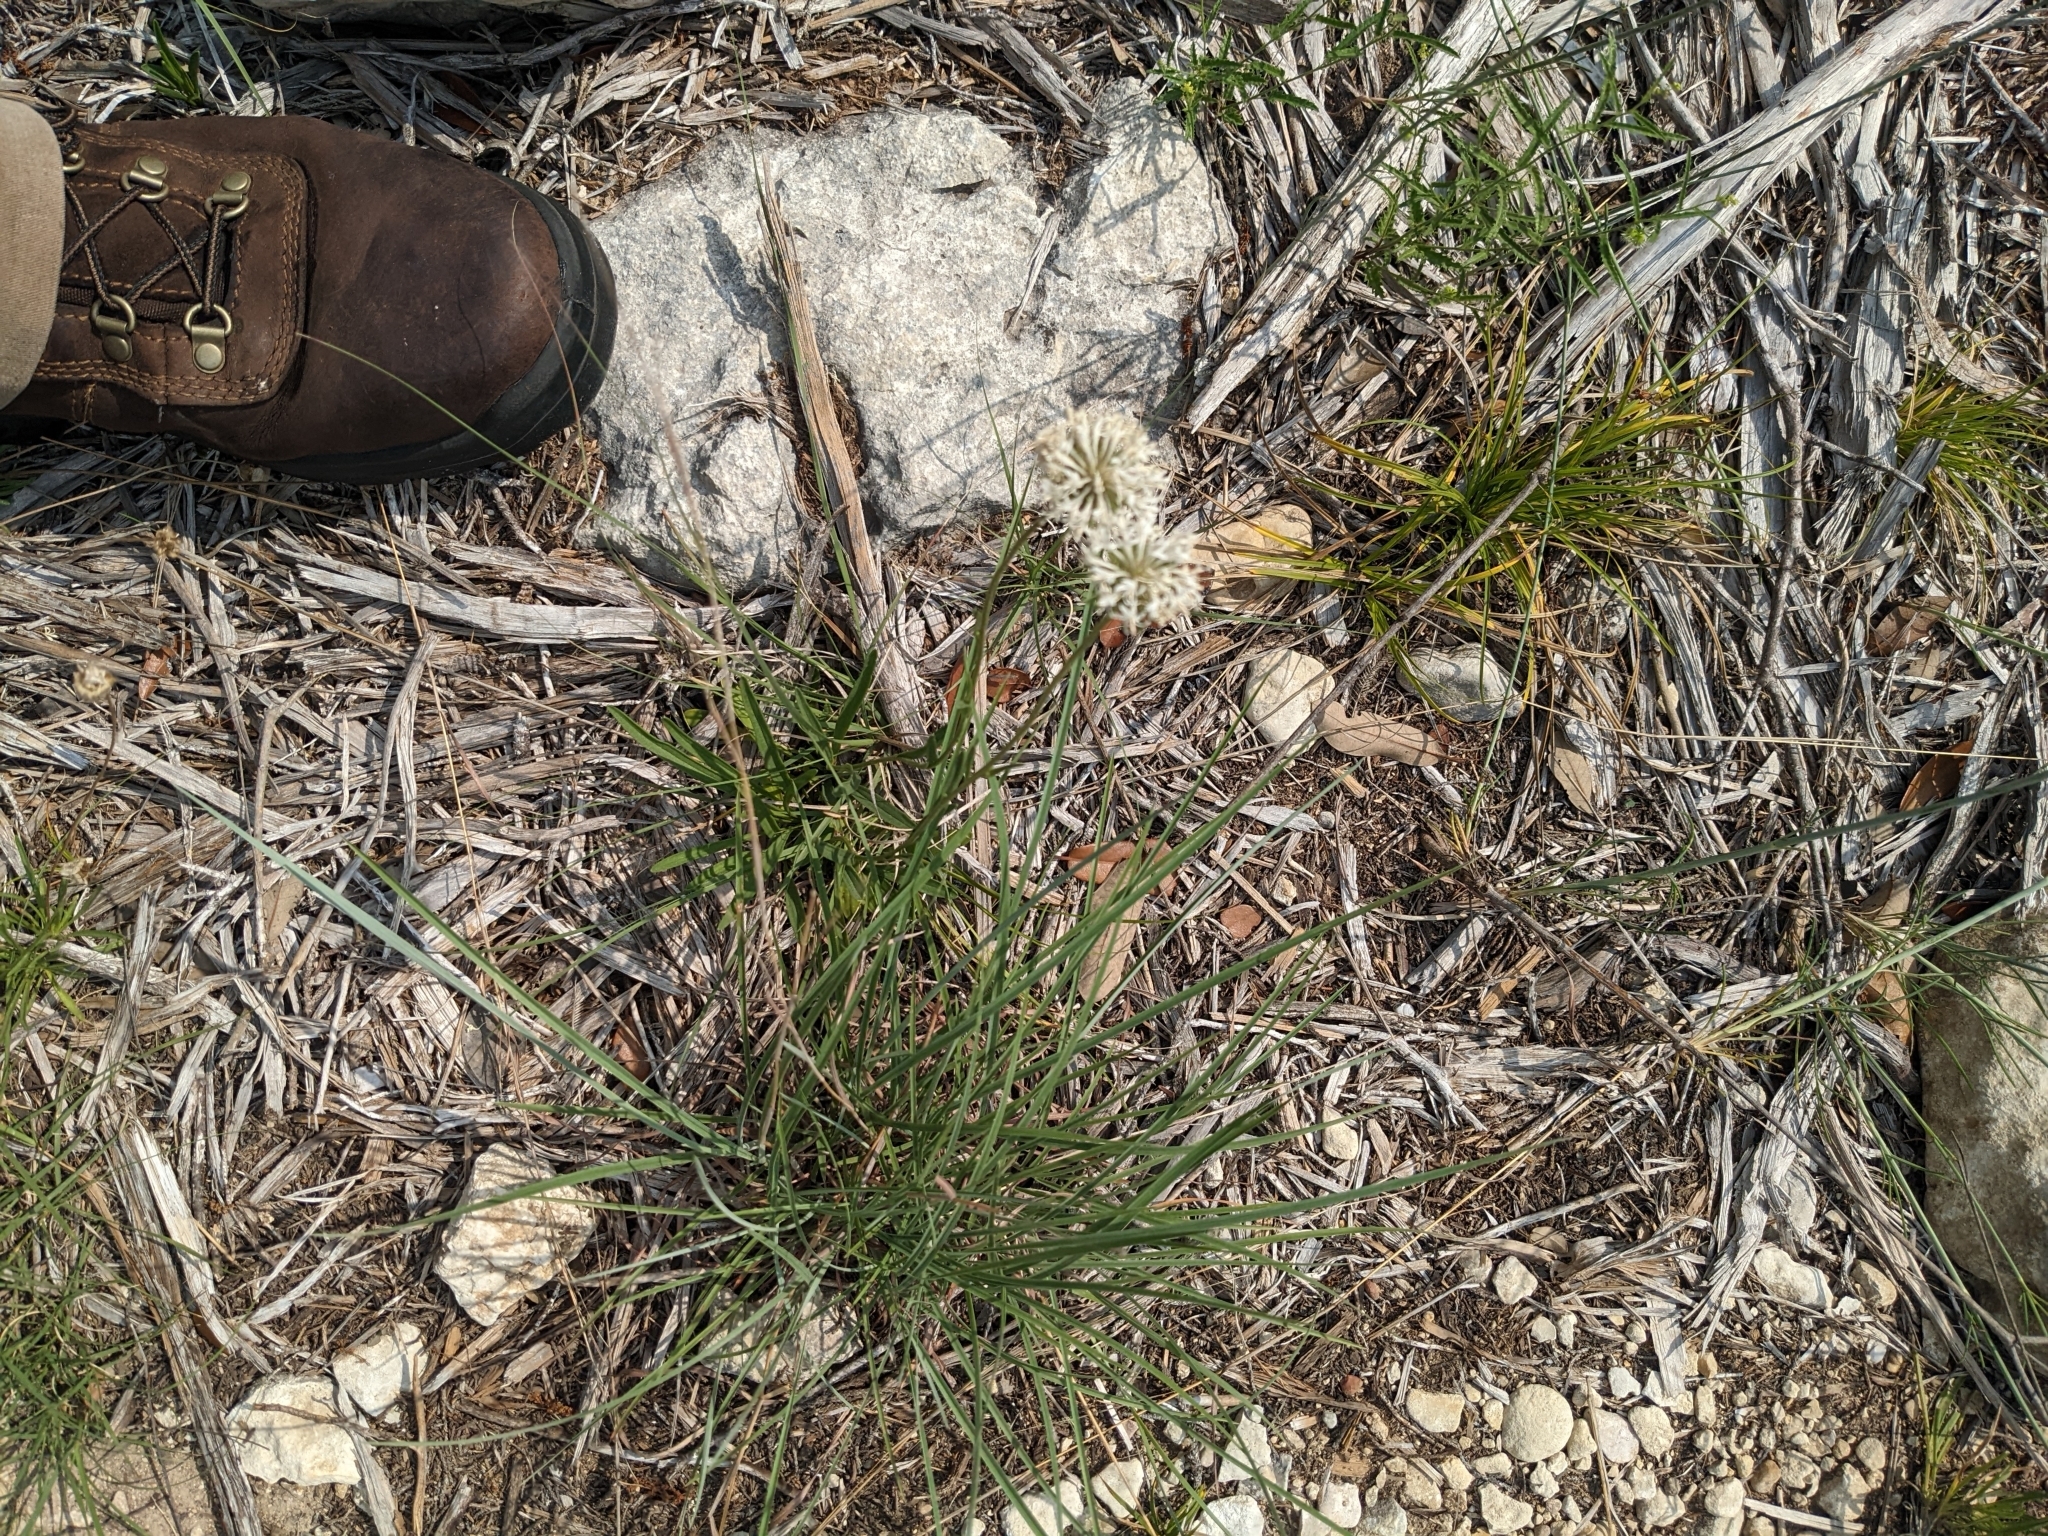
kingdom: Plantae
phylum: Tracheophyta
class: Magnoliopsida
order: Asterales
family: Asteraceae
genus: Marshallia
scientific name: Marshallia caespitosa
